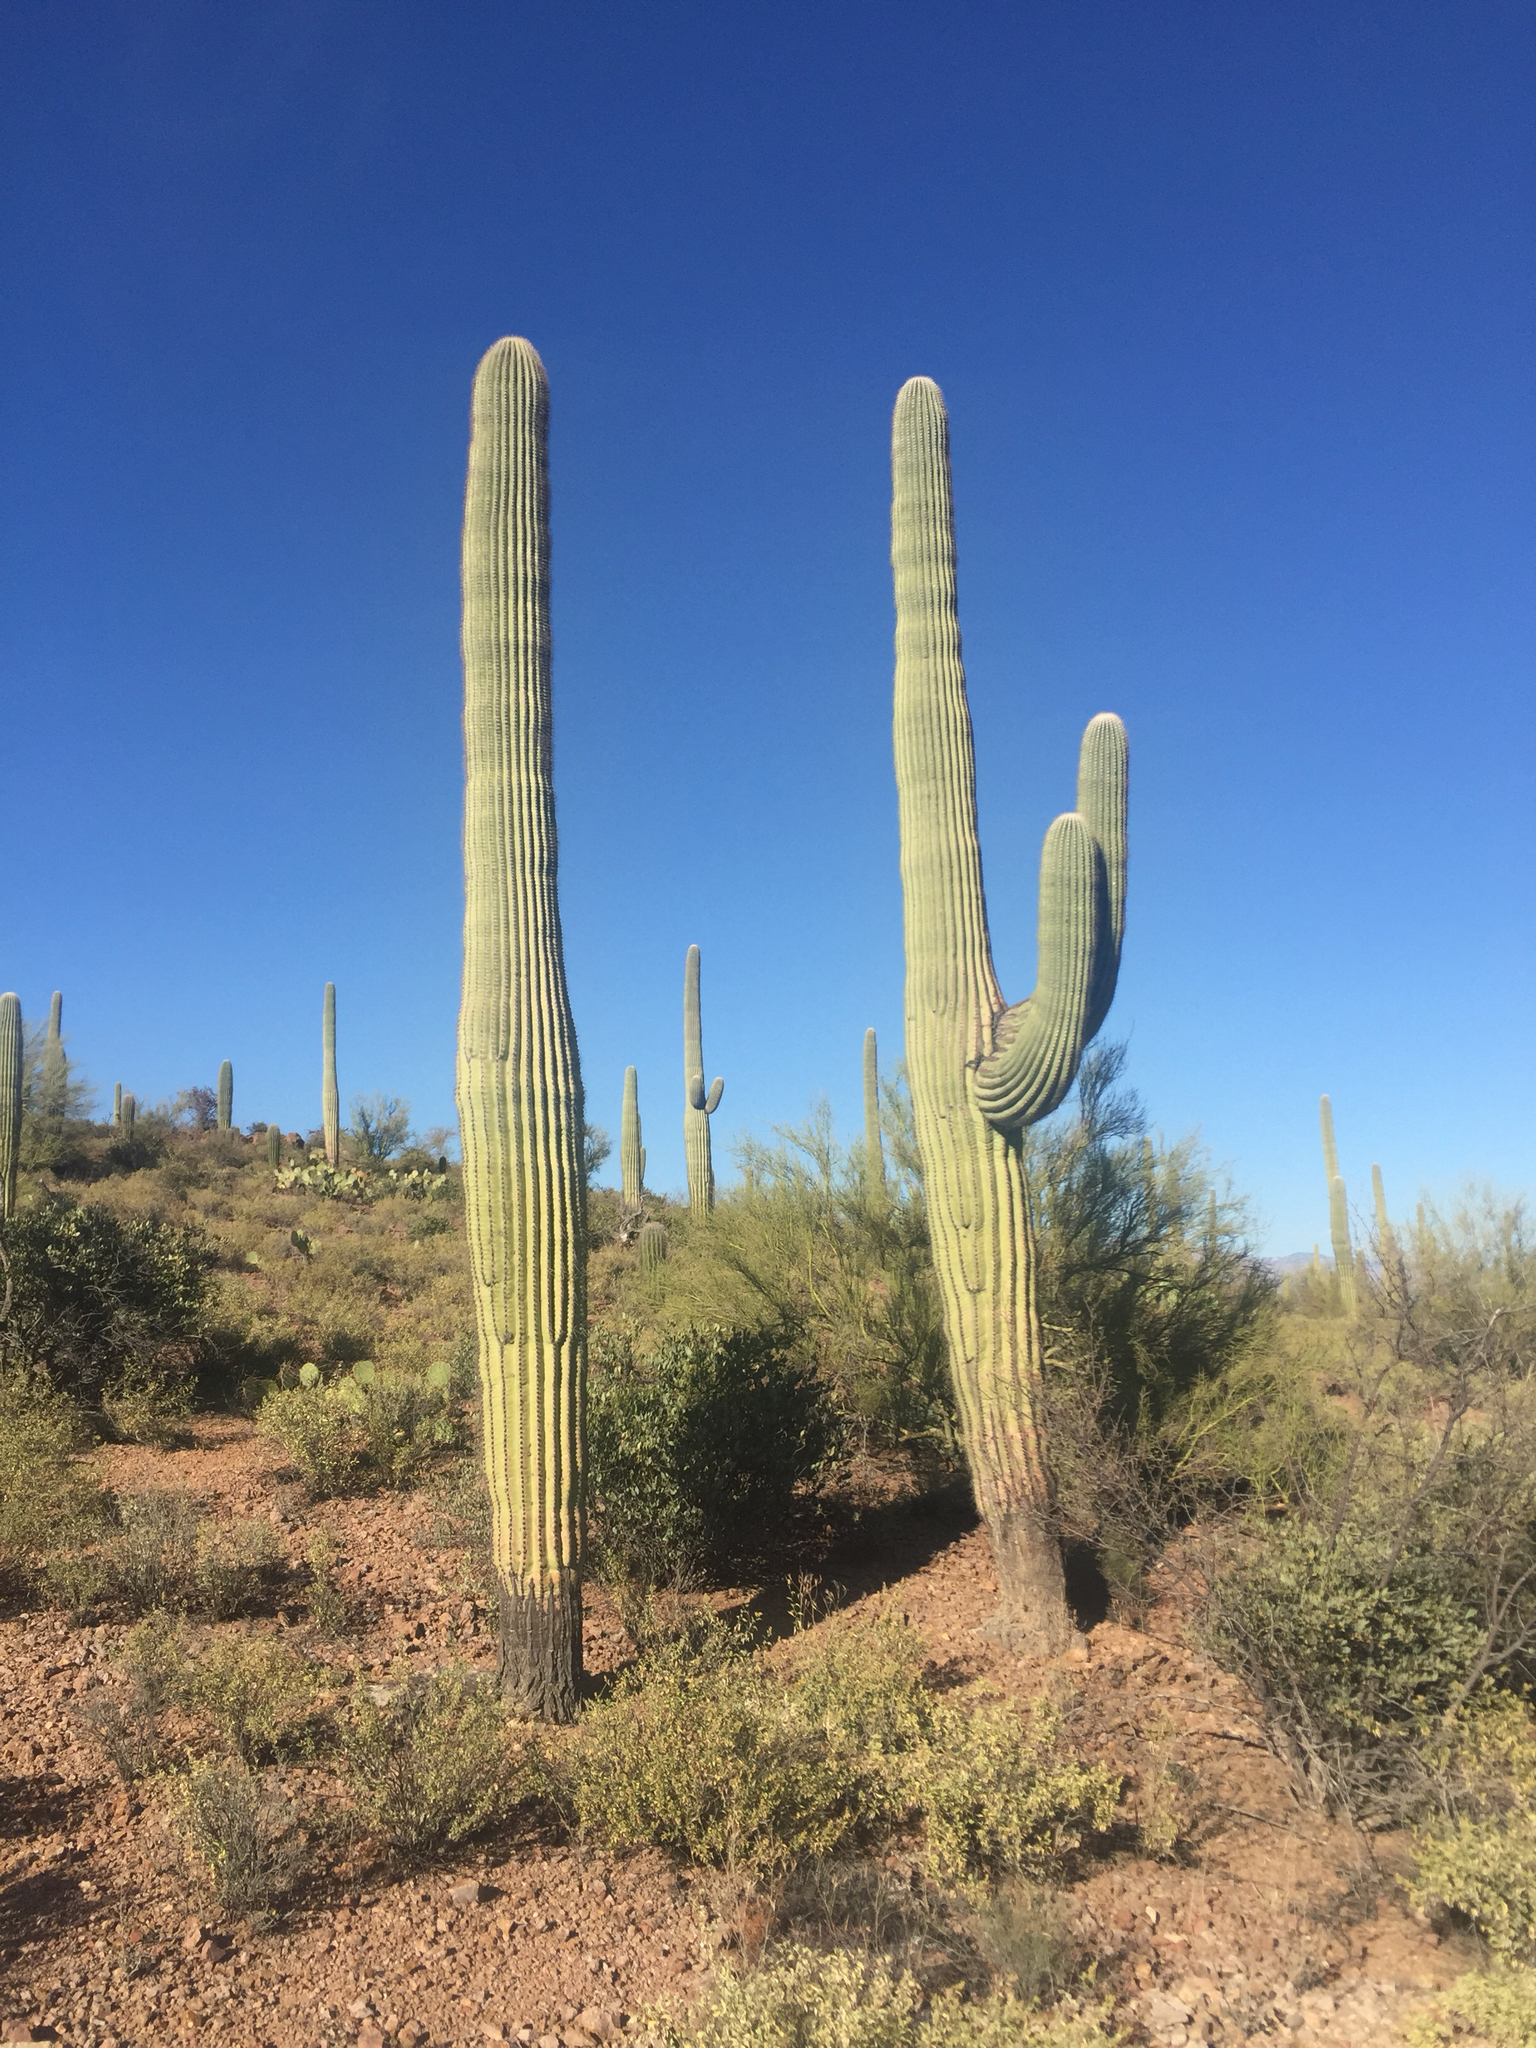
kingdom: Plantae
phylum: Tracheophyta
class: Magnoliopsida
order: Caryophyllales
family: Cactaceae
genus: Carnegiea
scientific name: Carnegiea gigantea
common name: Saguaro
